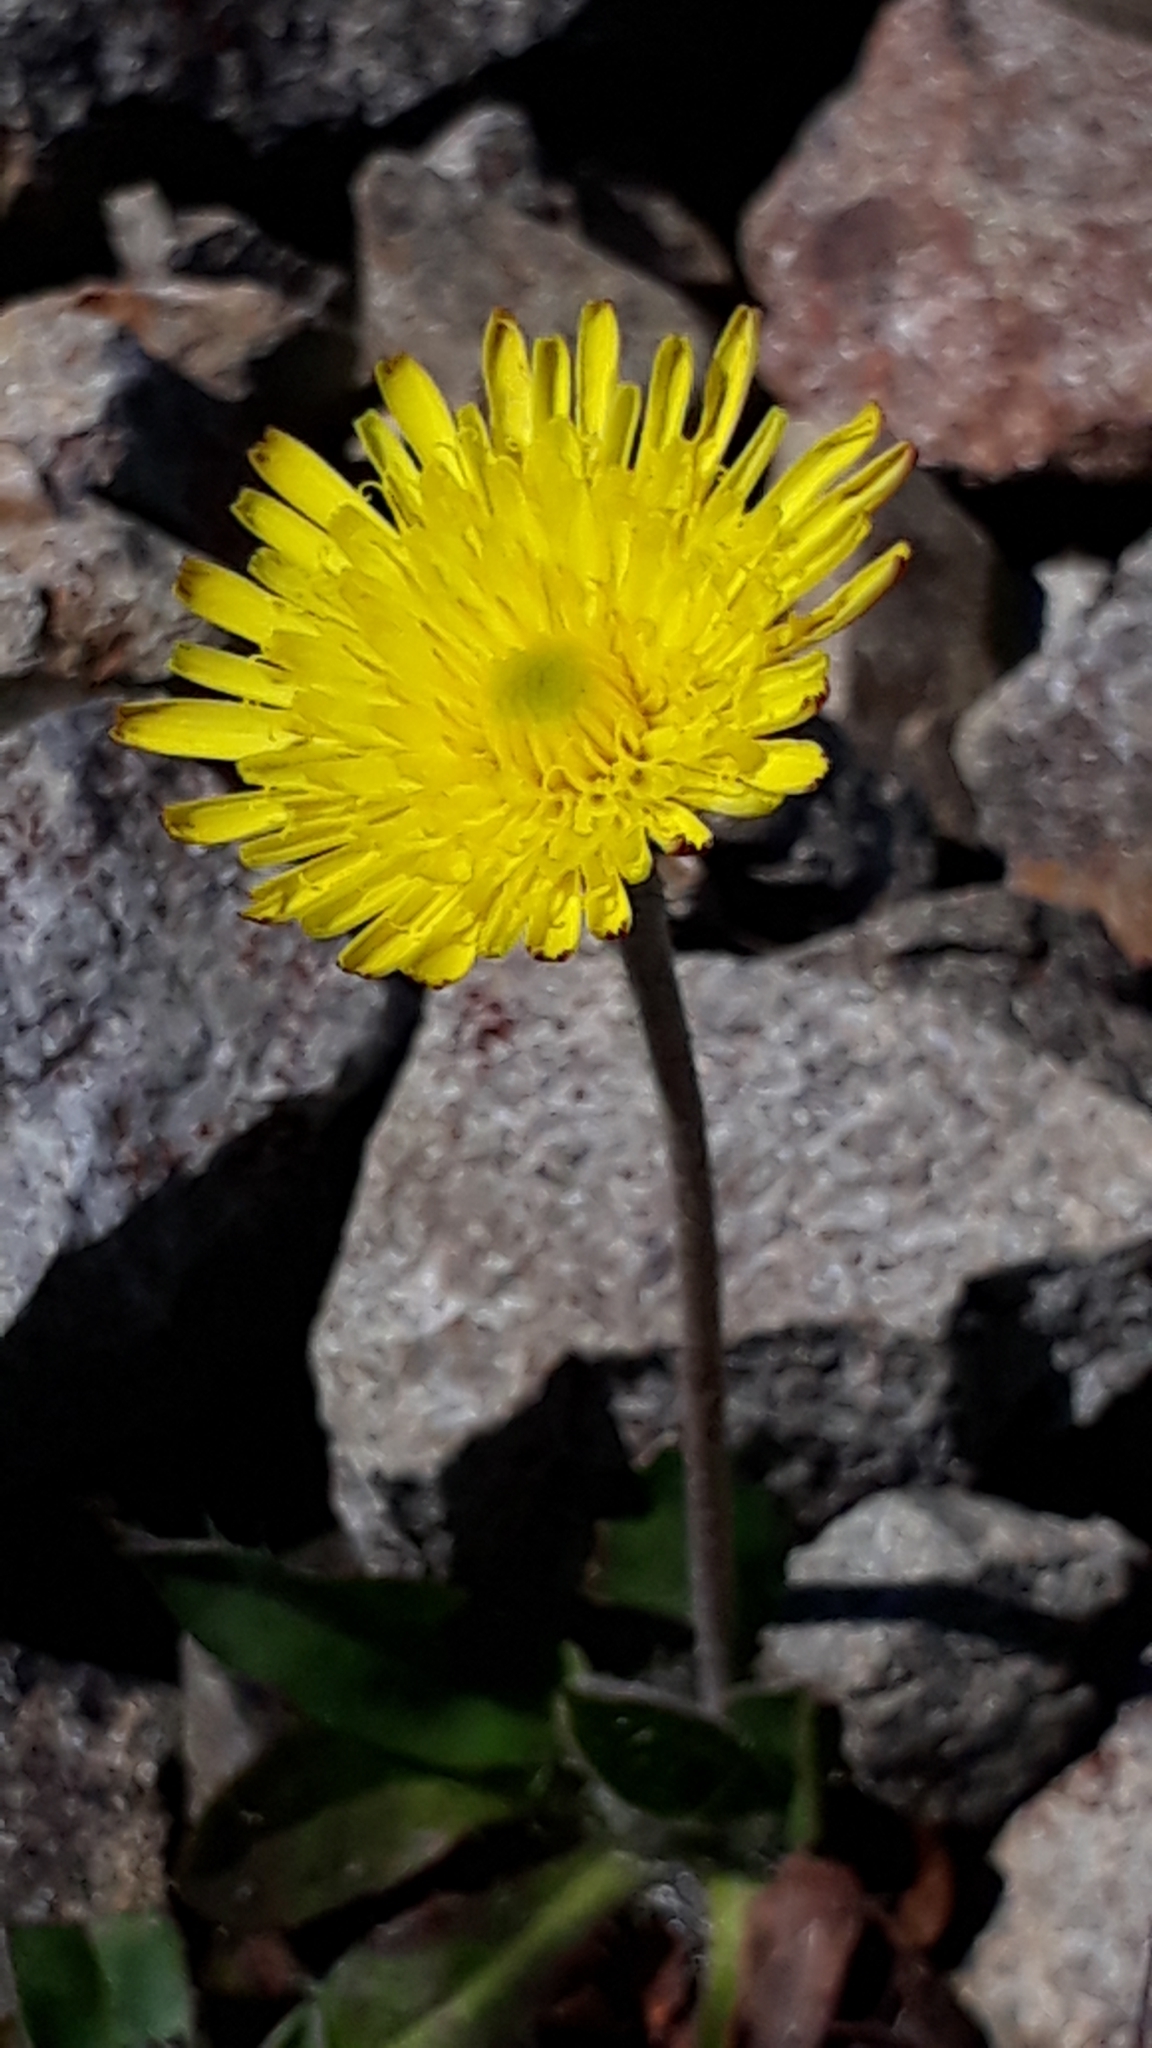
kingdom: Plantae
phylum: Tracheophyta
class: Magnoliopsida
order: Asterales
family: Asteraceae
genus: Pilosella
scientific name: Pilosella officinarum
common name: Mouse-ear hawkweed
